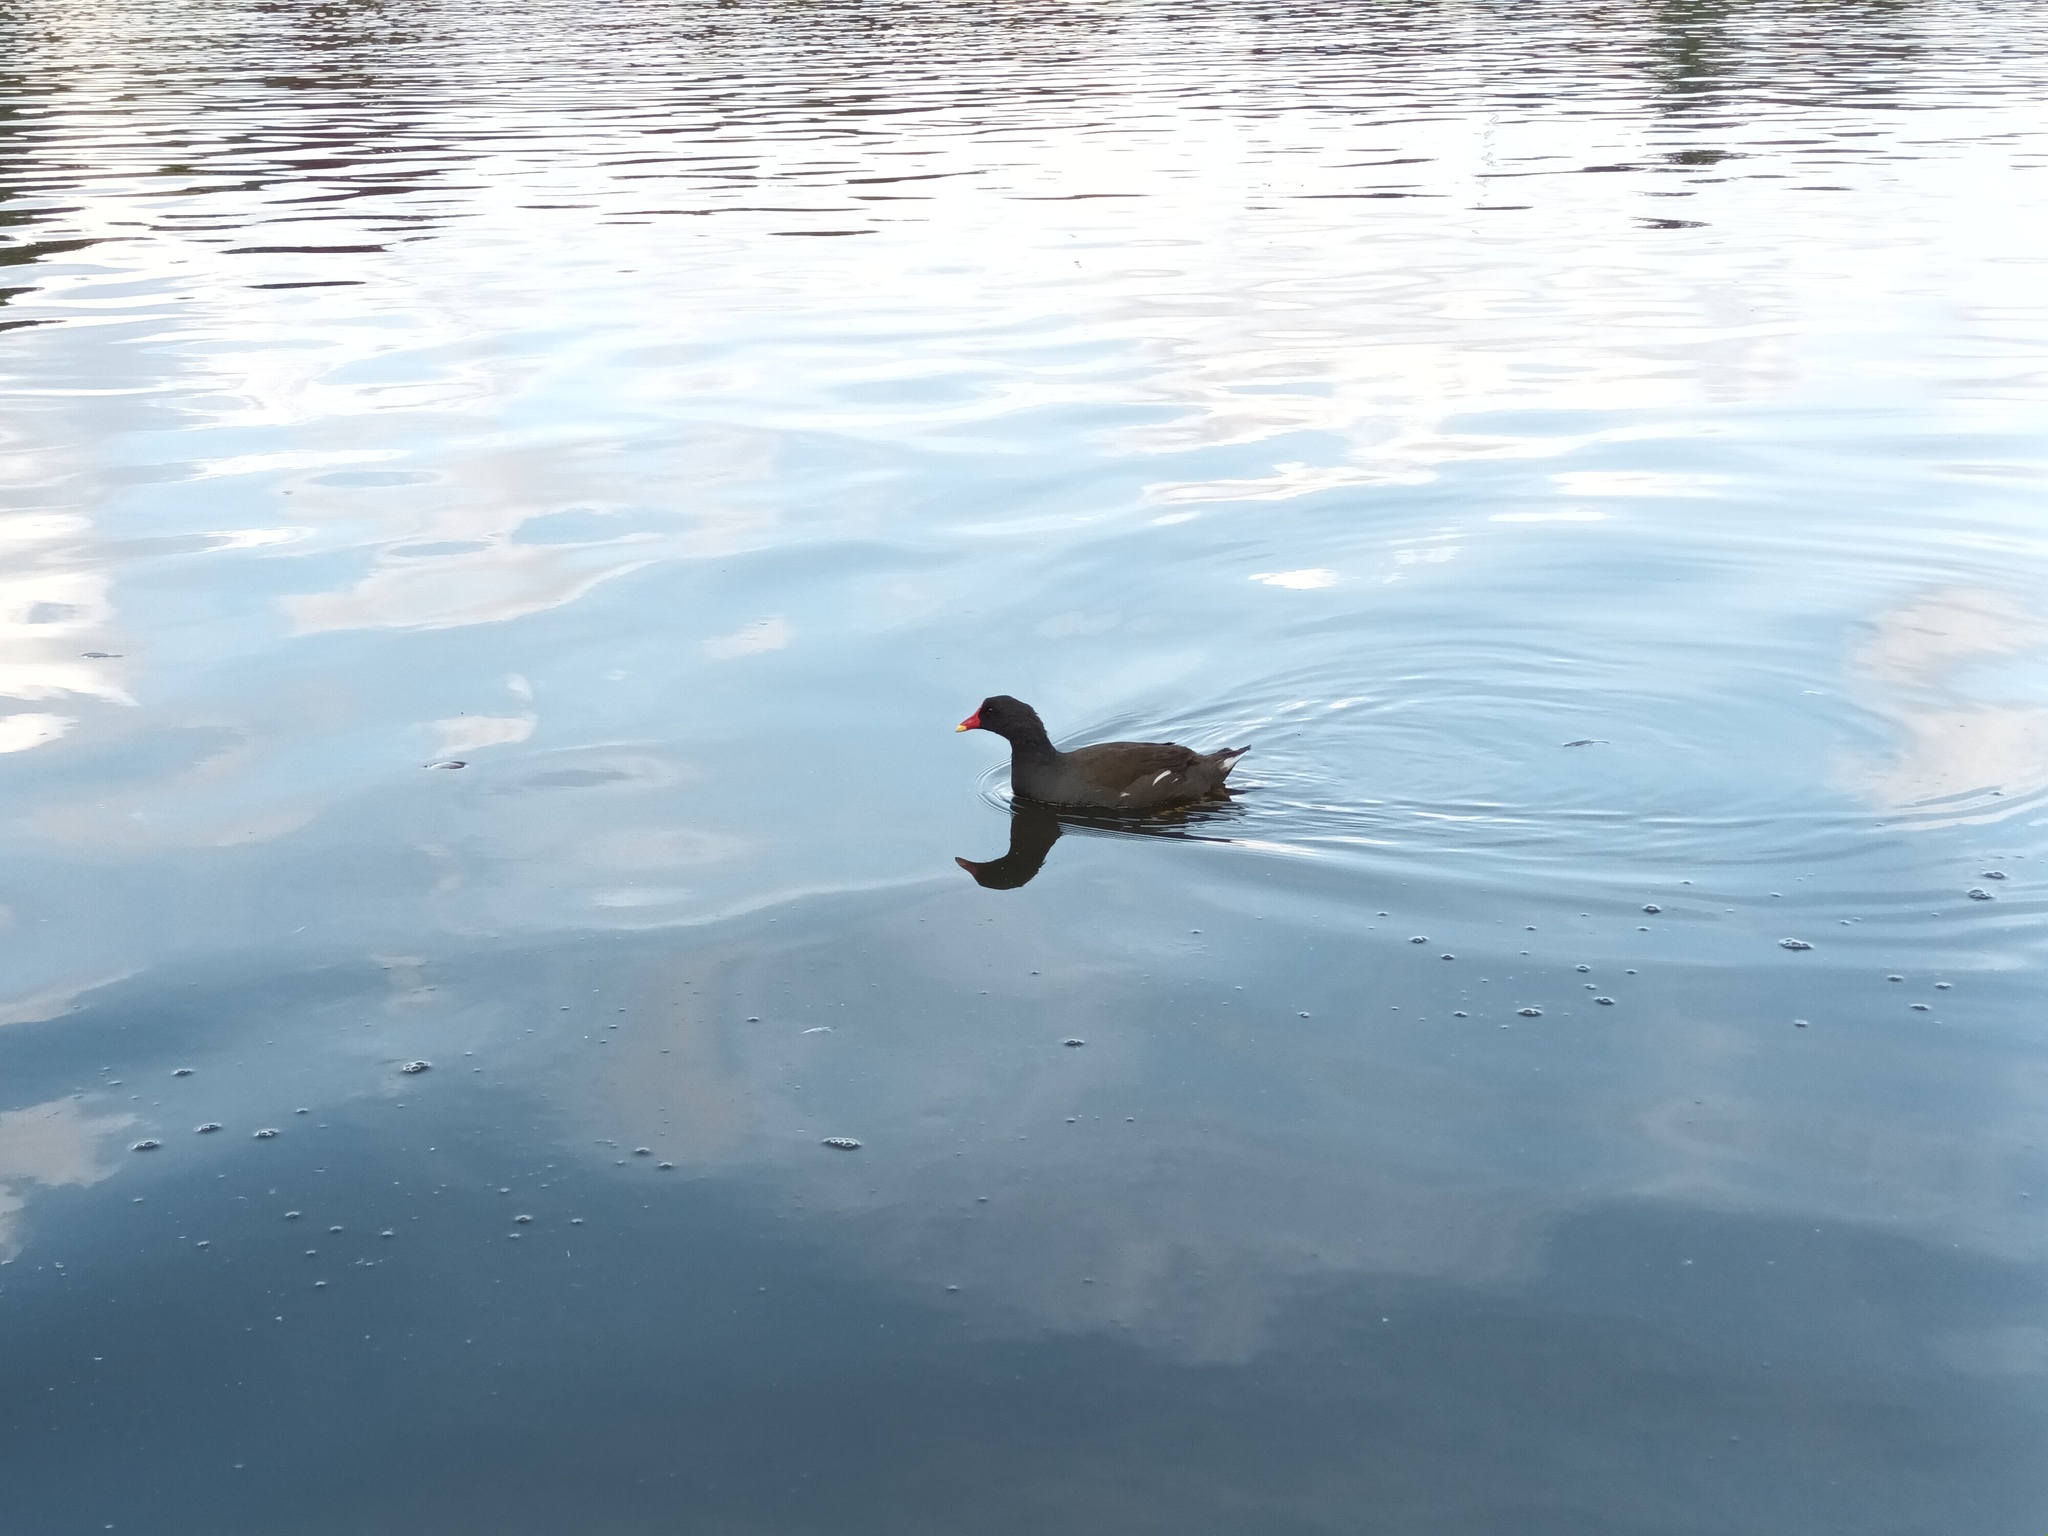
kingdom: Animalia
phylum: Chordata
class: Aves
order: Gruiformes
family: Rallidae
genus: Gallinula
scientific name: Gallinula chloropus
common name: Common moorhen
